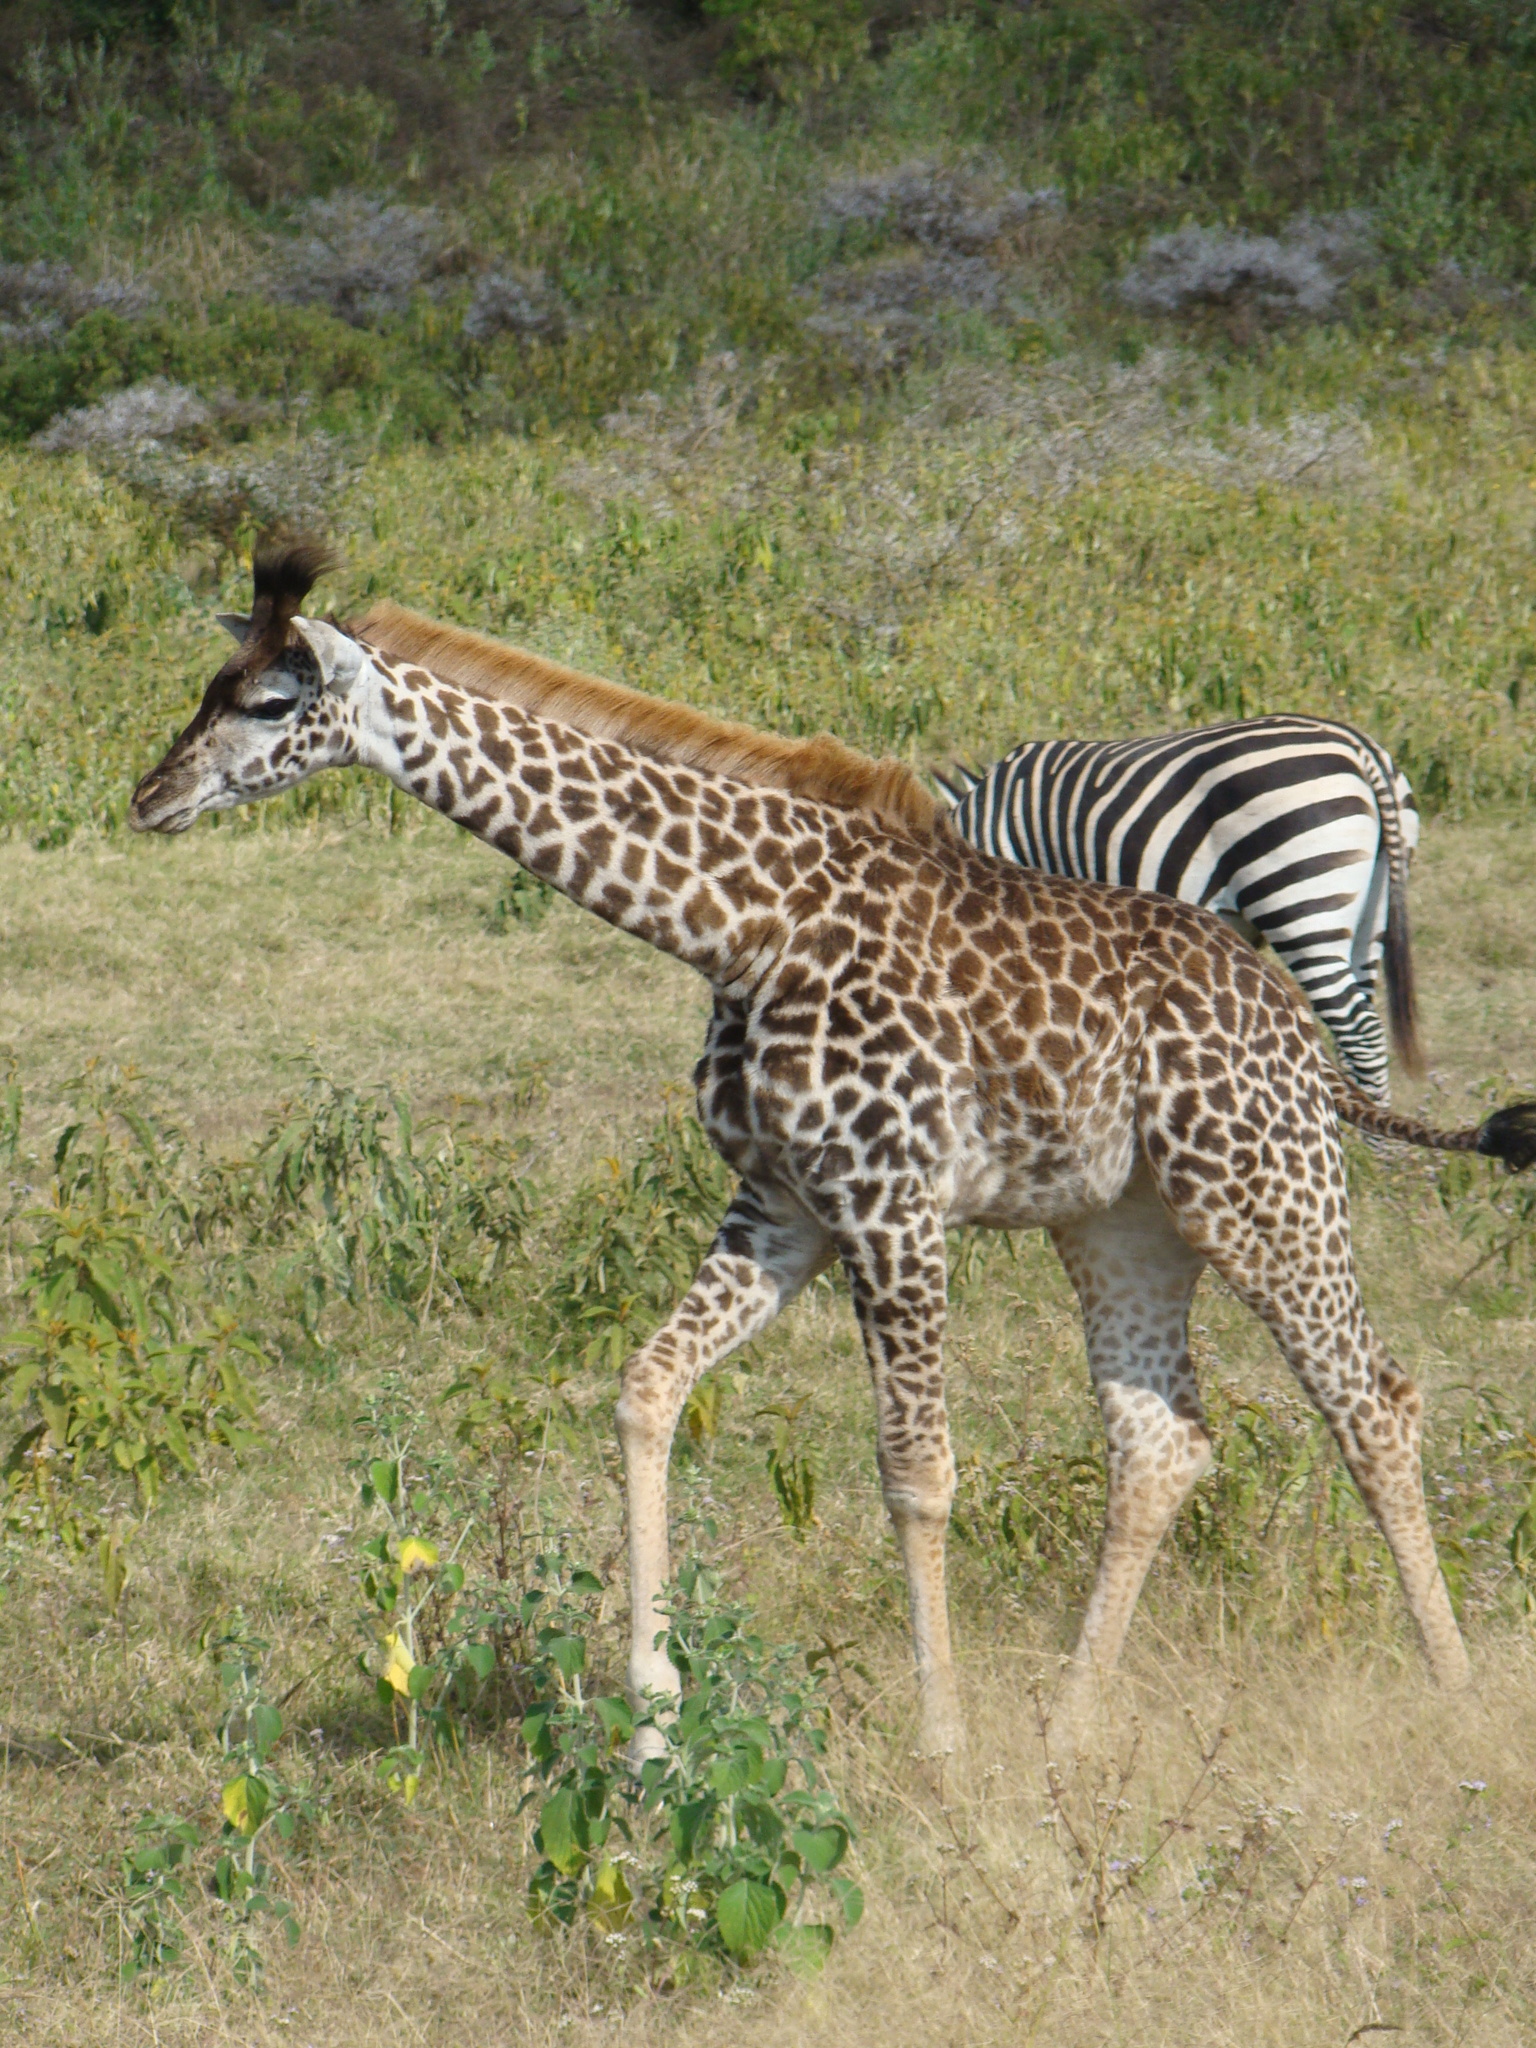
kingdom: Animalia
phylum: Chordata
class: Mammalia
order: Artiodactyla
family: Giraffidae
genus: Giraffa
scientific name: Giraffa tippelskirchi
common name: Masai giraffe
